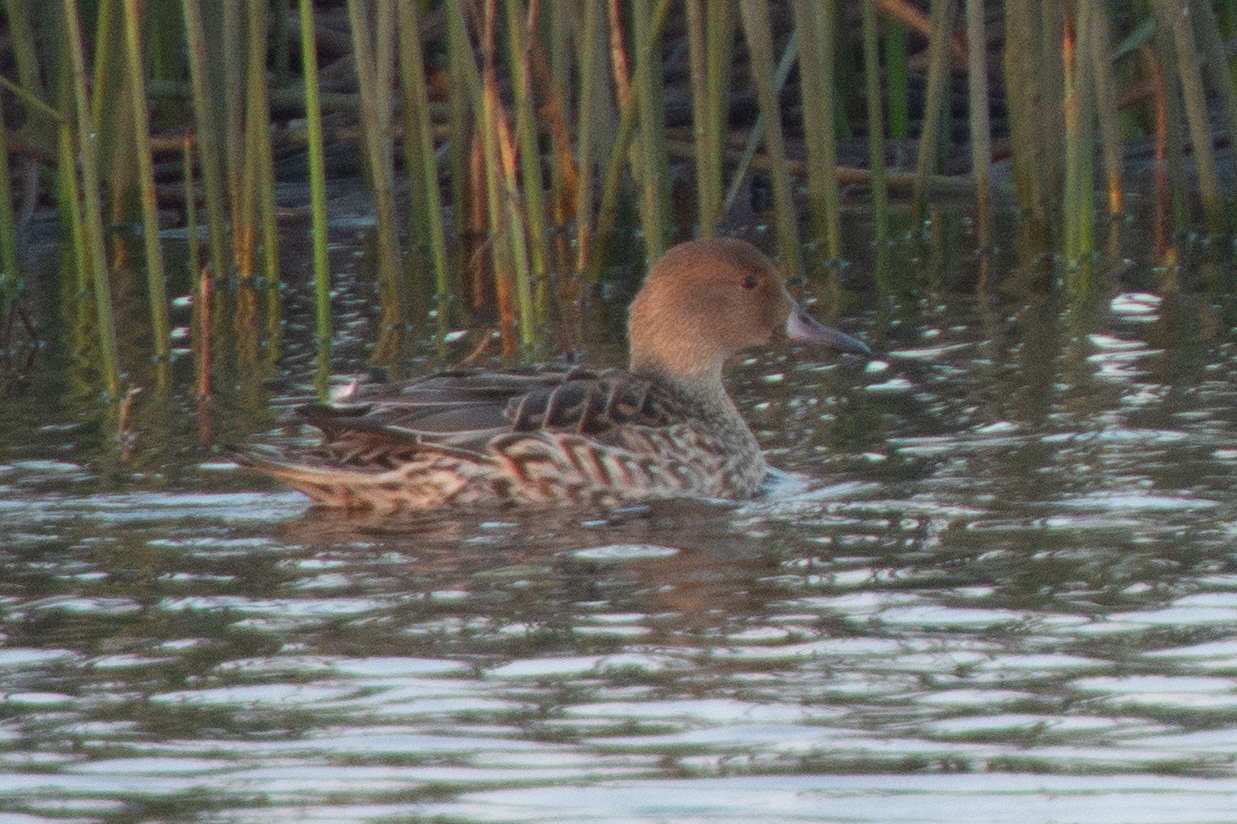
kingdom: Animalia
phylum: Chordata
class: Aves
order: Anseriformes
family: Anatidae
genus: Anas
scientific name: Anas acuta
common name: Northern pintail
